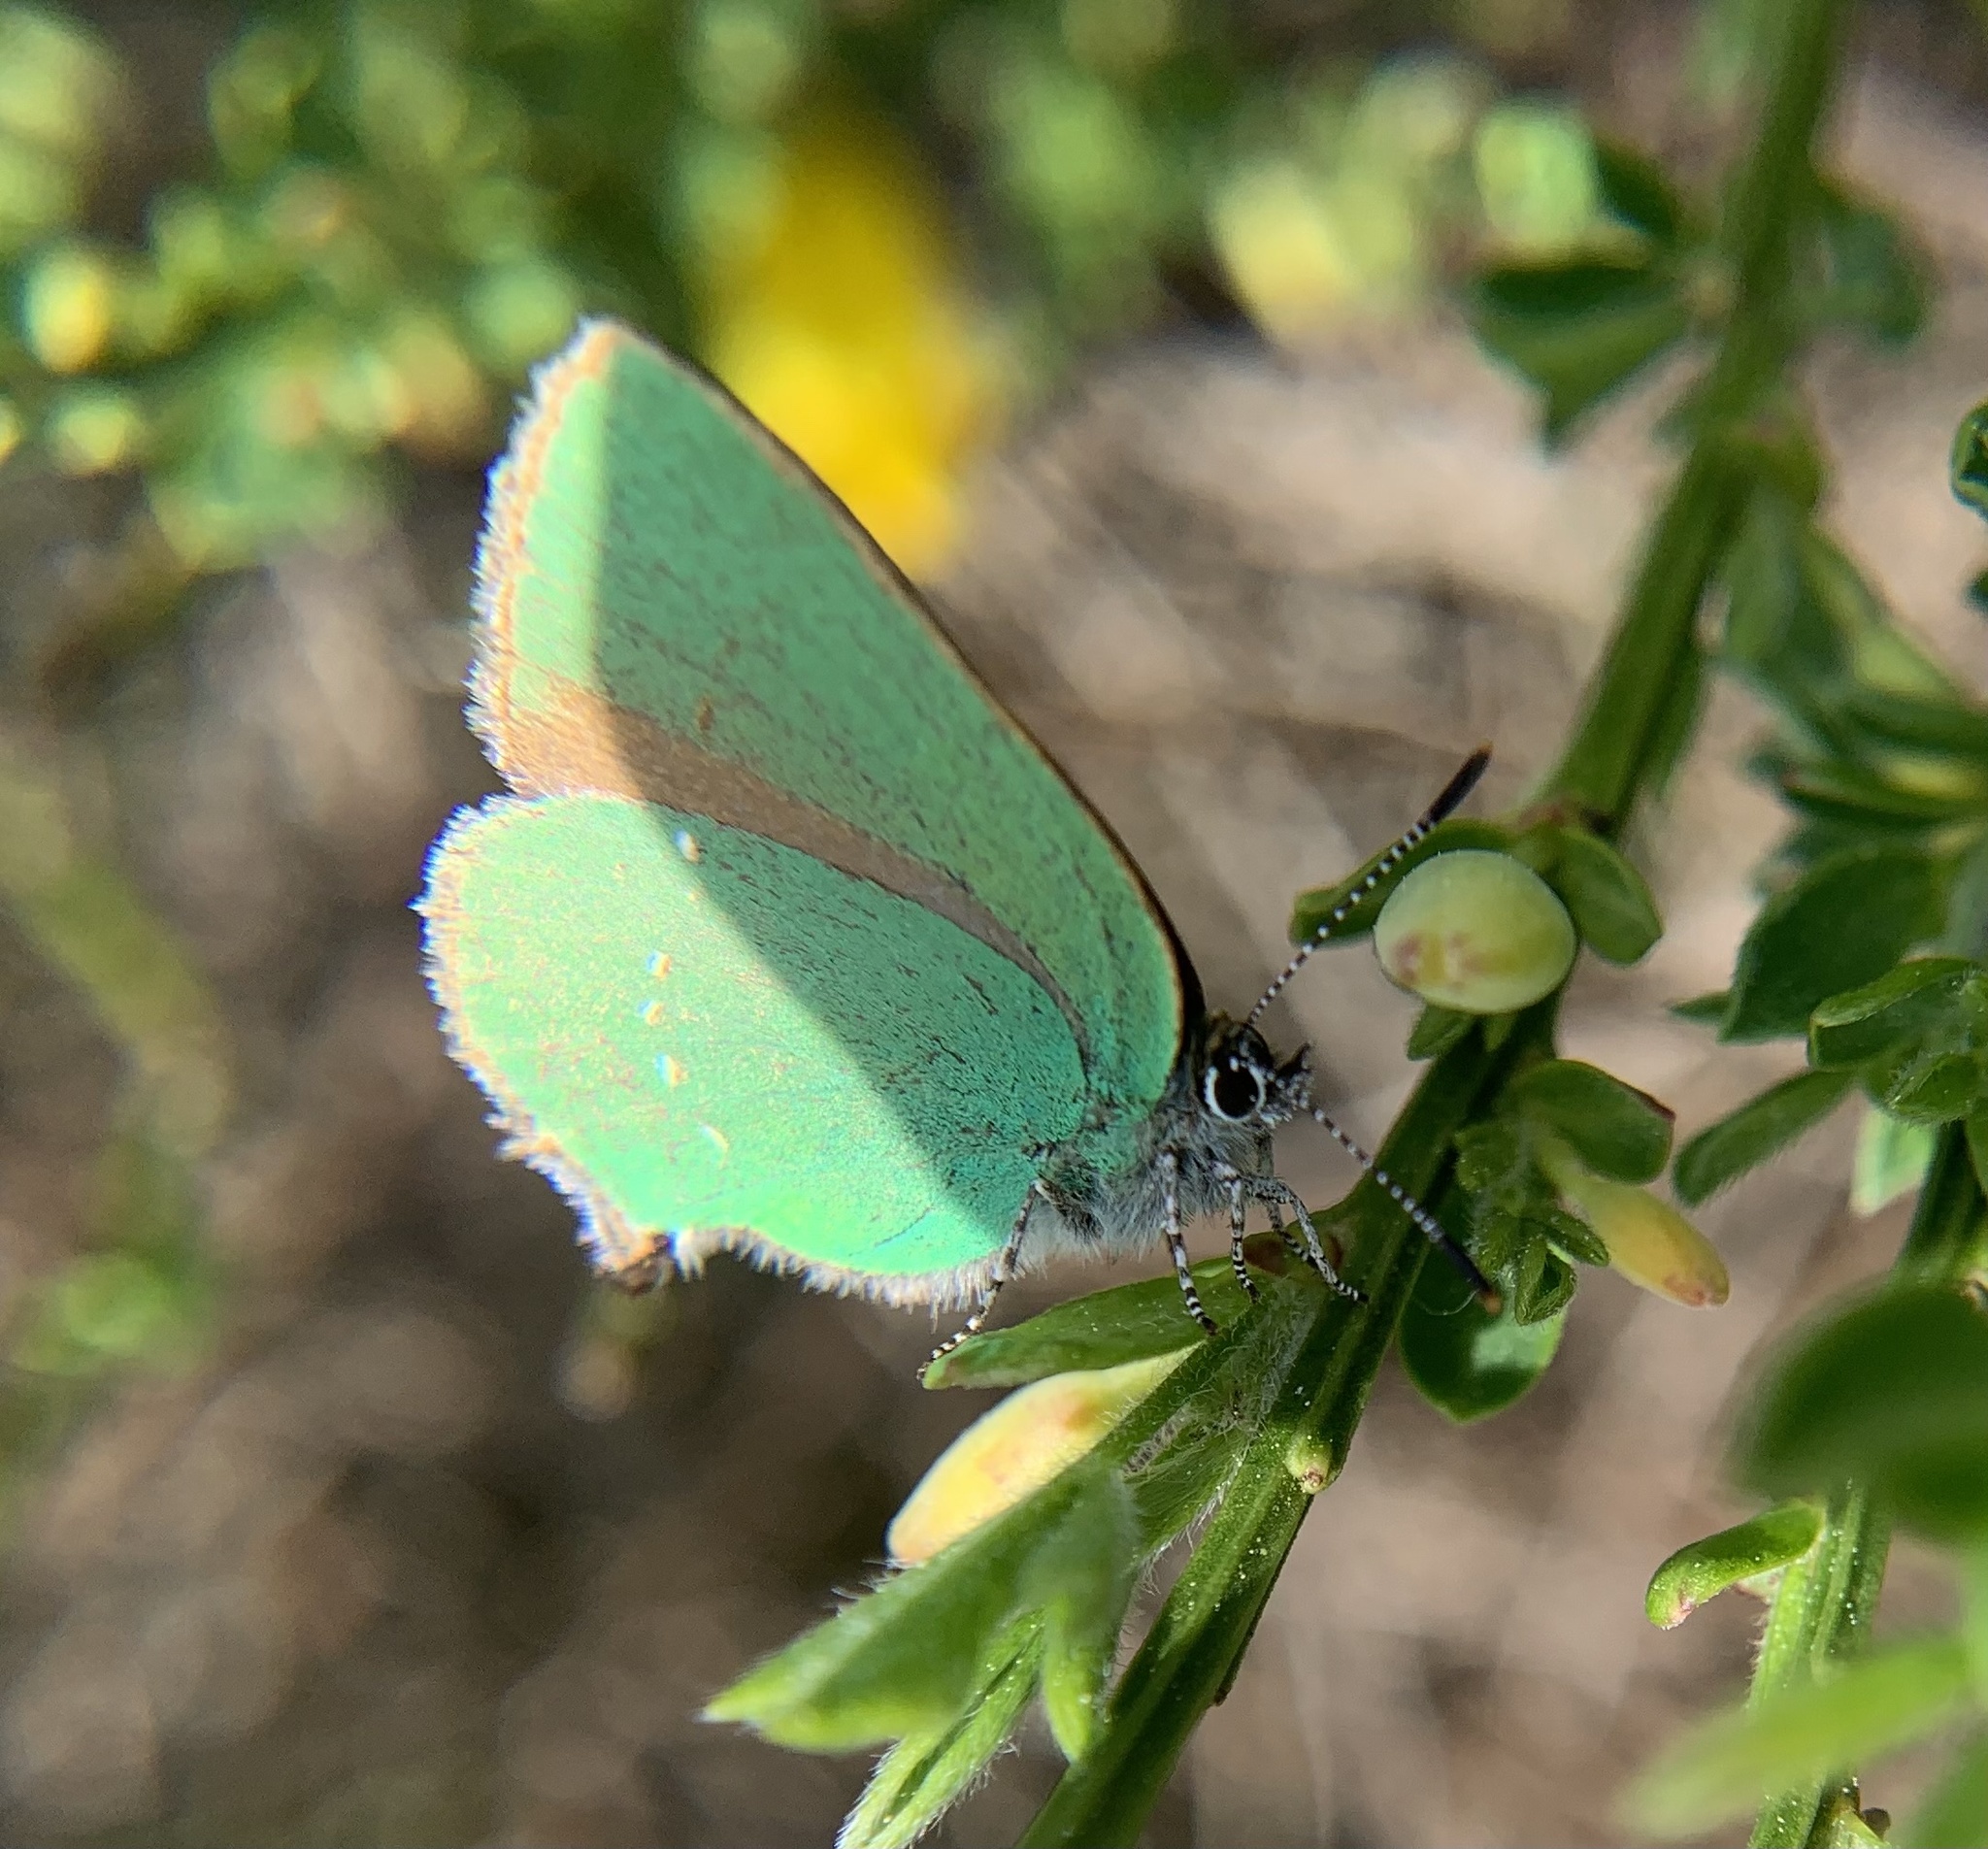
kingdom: Animalia
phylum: Arthropoda
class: Insecta
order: Lepidoptera
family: Lycaenidae
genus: Callophrys
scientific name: Callophrys rubi
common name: Green hairstreak
